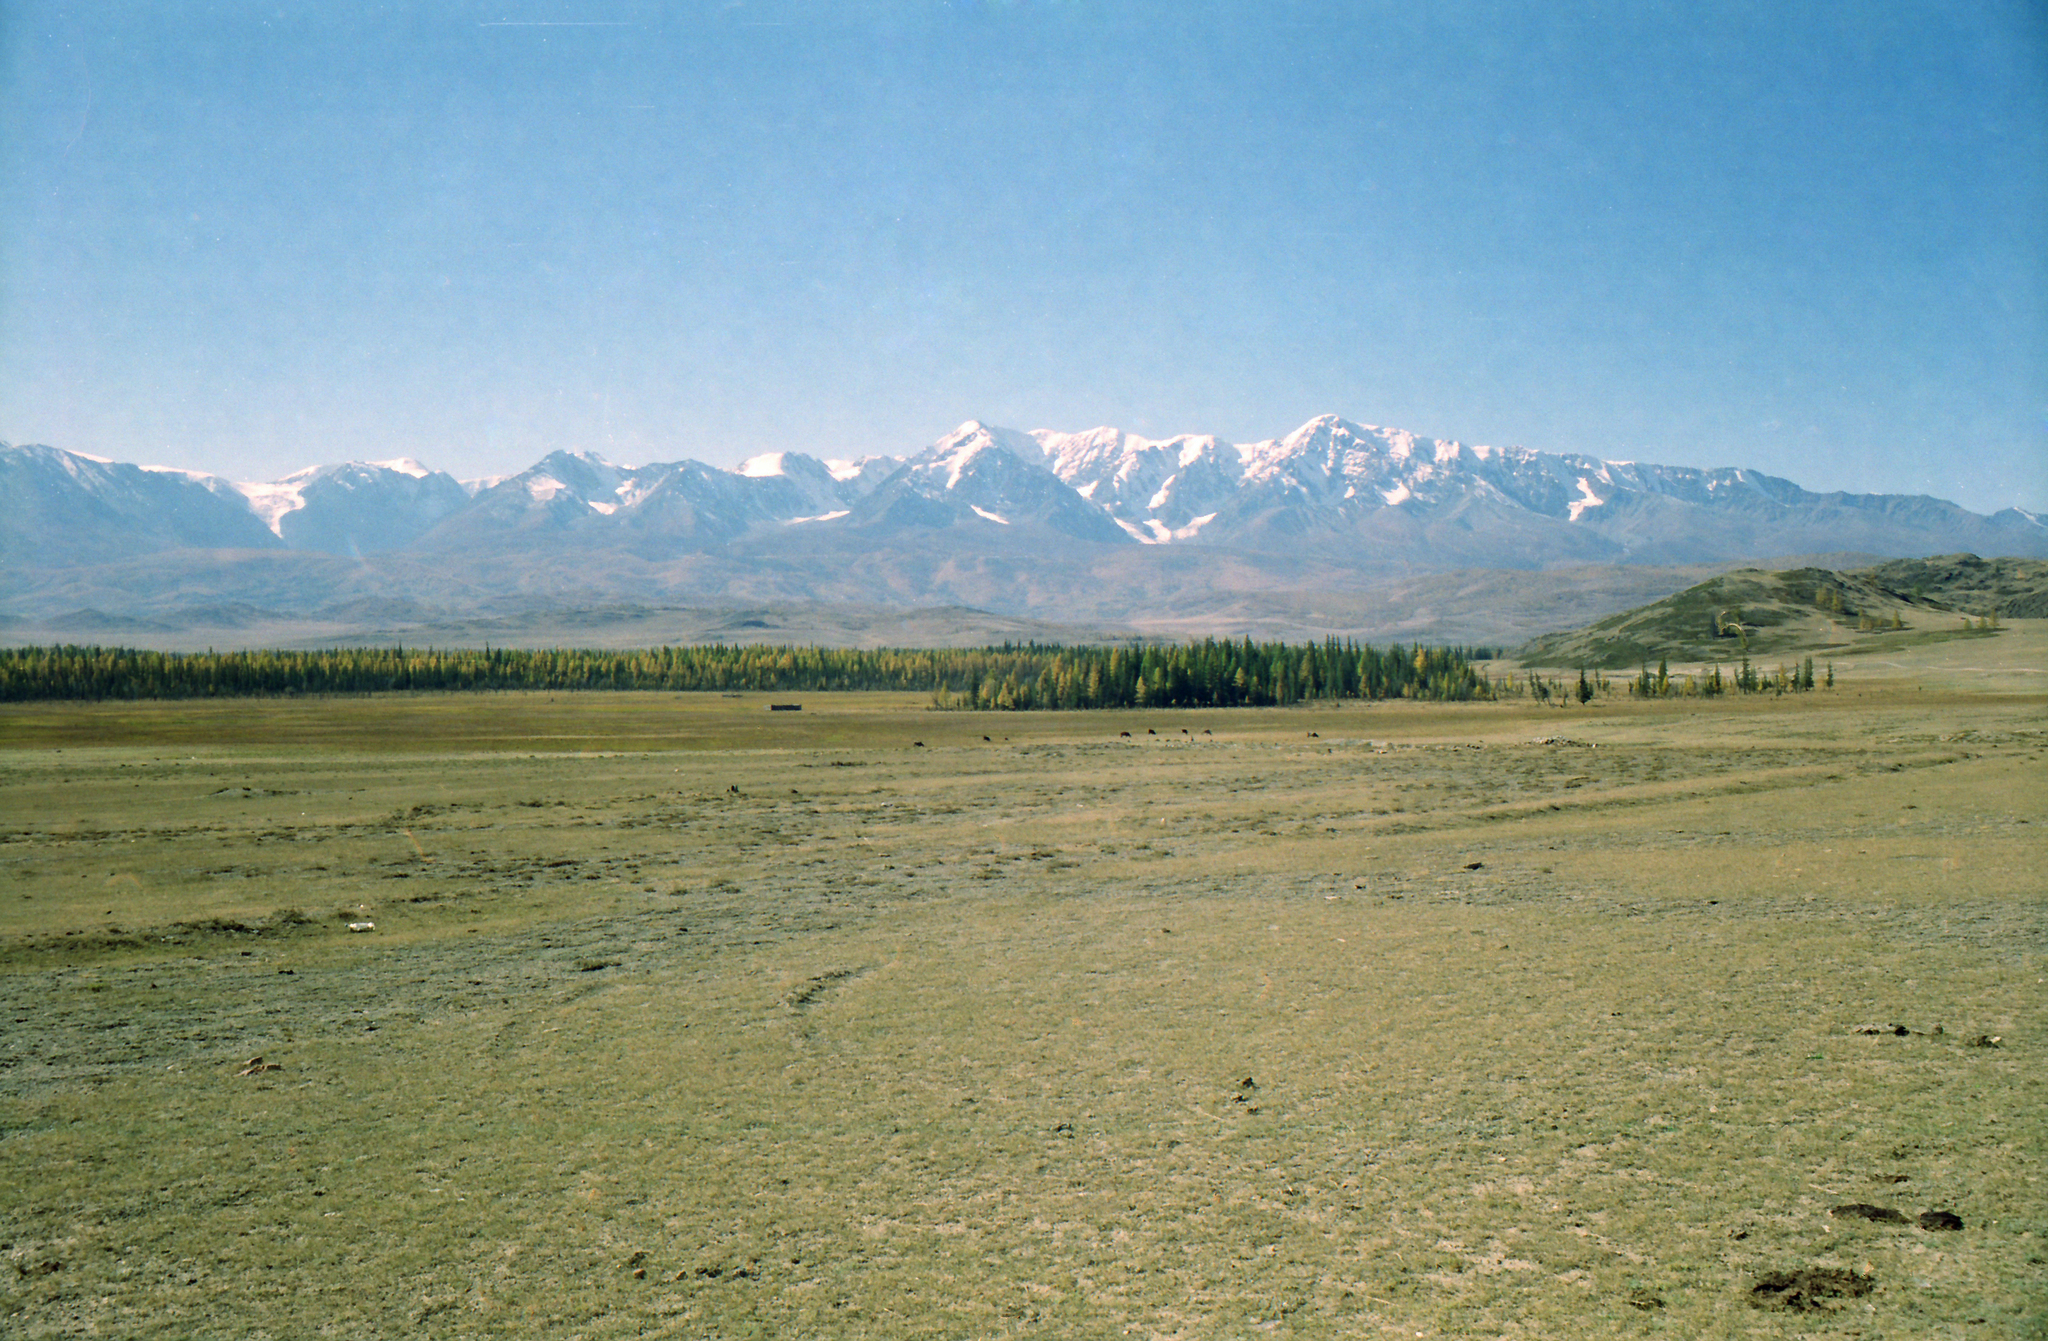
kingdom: Plantae
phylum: Tracheophyta
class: Pinopsida
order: Pinales
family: Pinaceae
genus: Larix
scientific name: Larix sibirica
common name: Siberian larch
